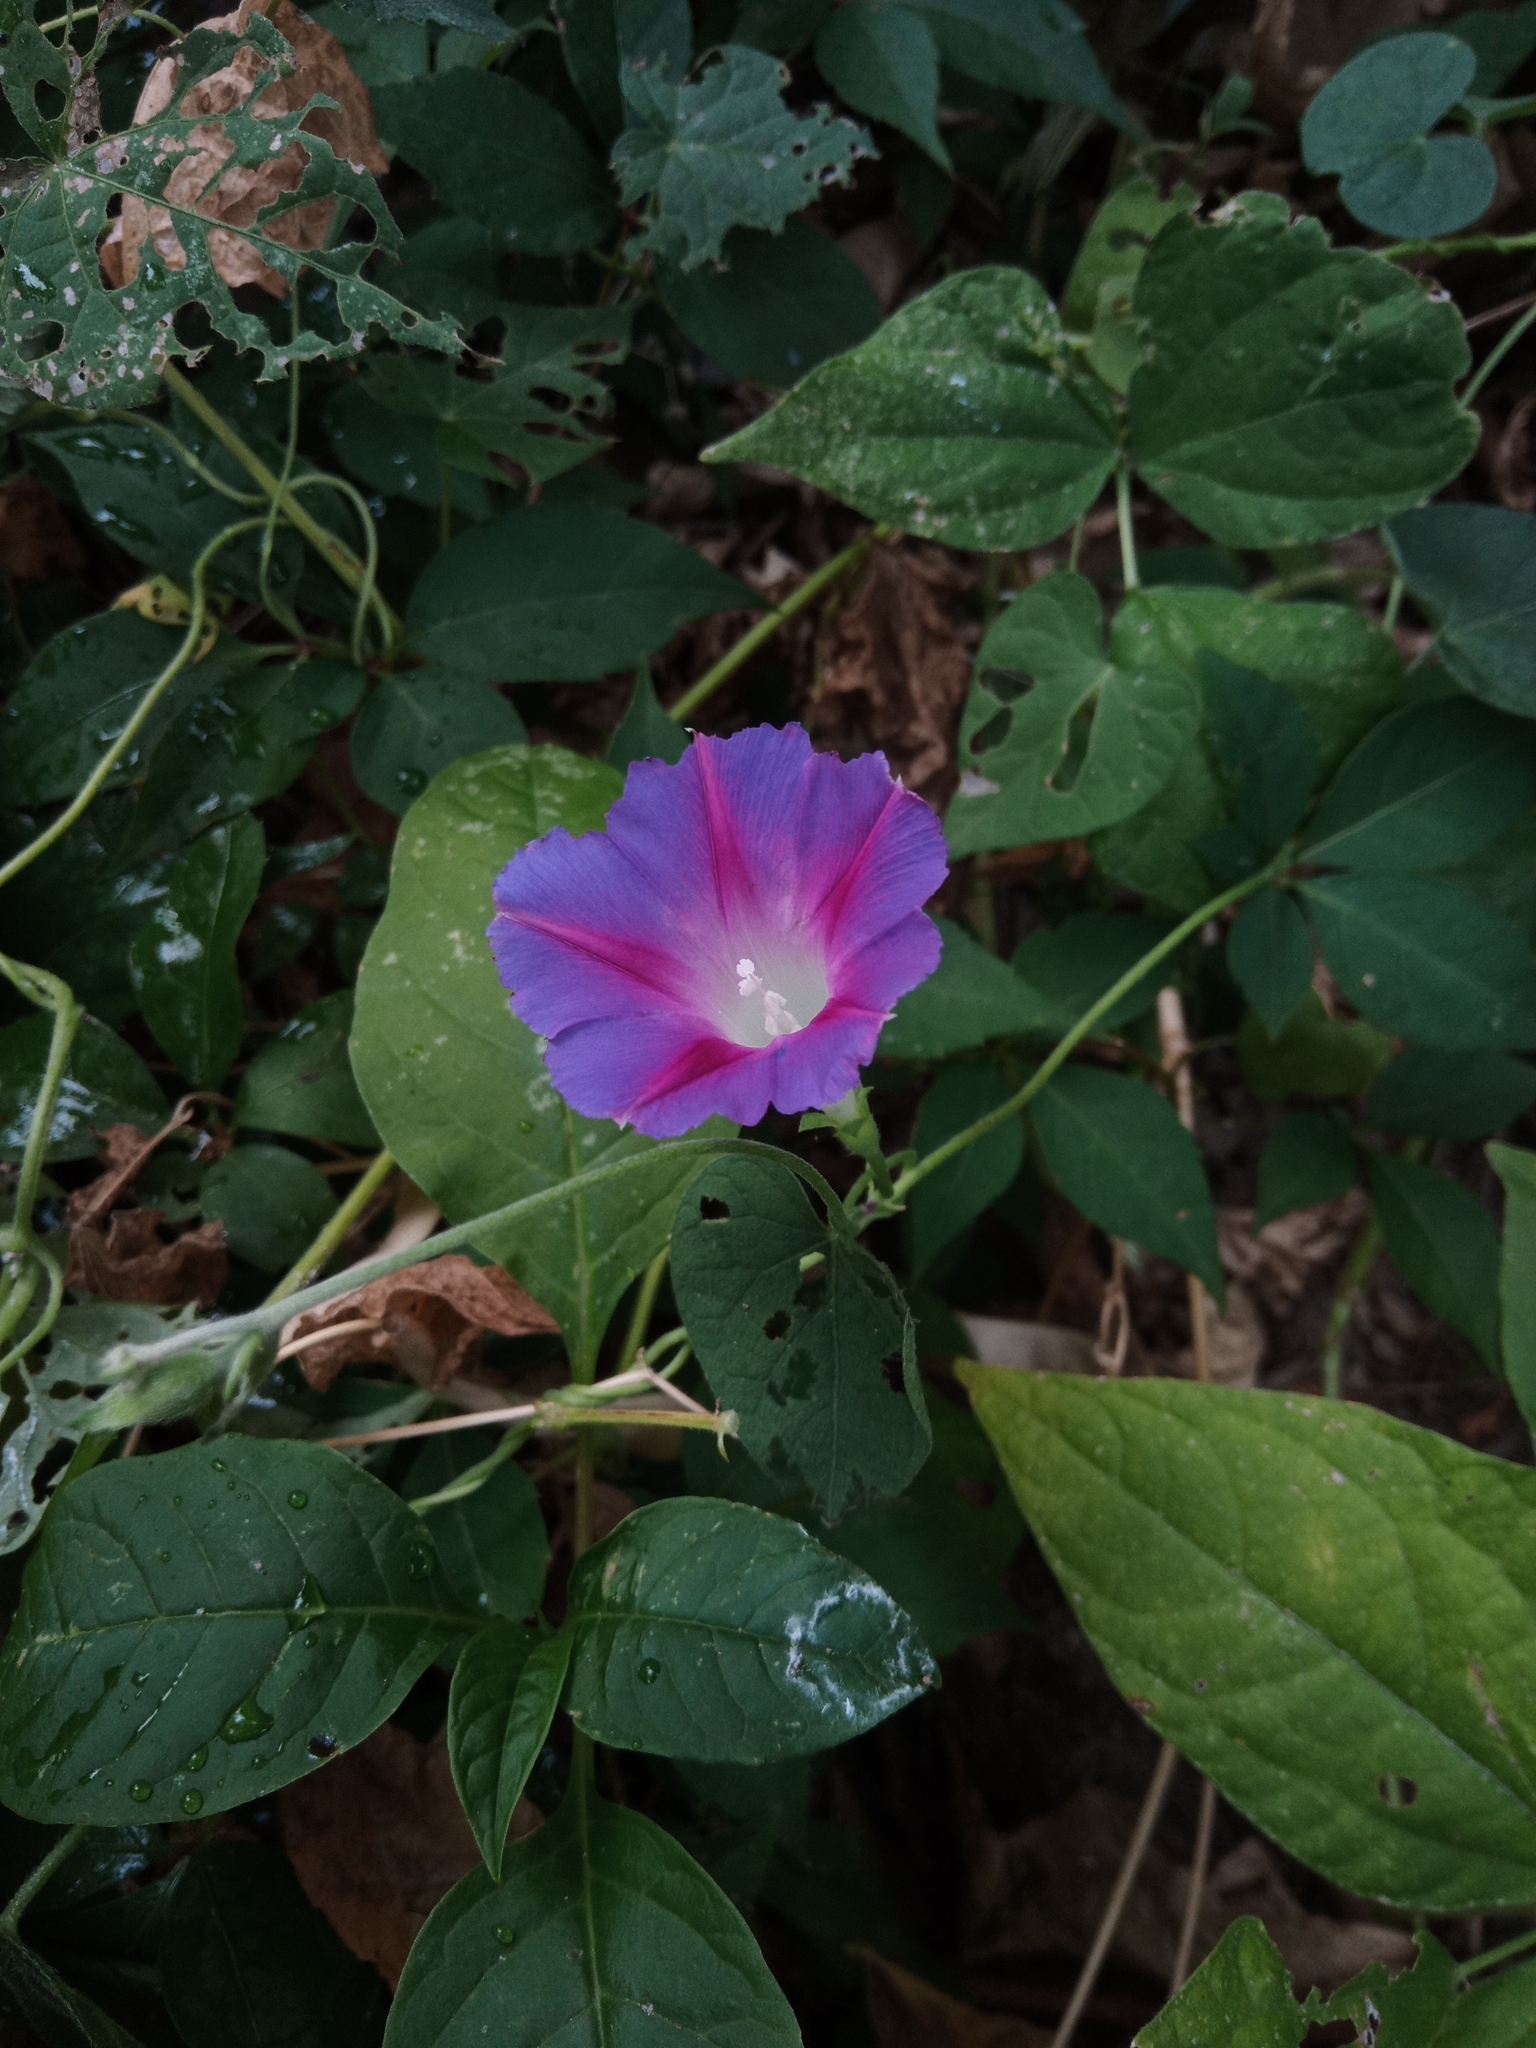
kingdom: Plantae
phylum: Tracheophyta
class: Magnoliopsida
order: Solanales
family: Convolvulaceae
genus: Ipomoea
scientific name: Ipomoea purpurea
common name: Common morning-glory
